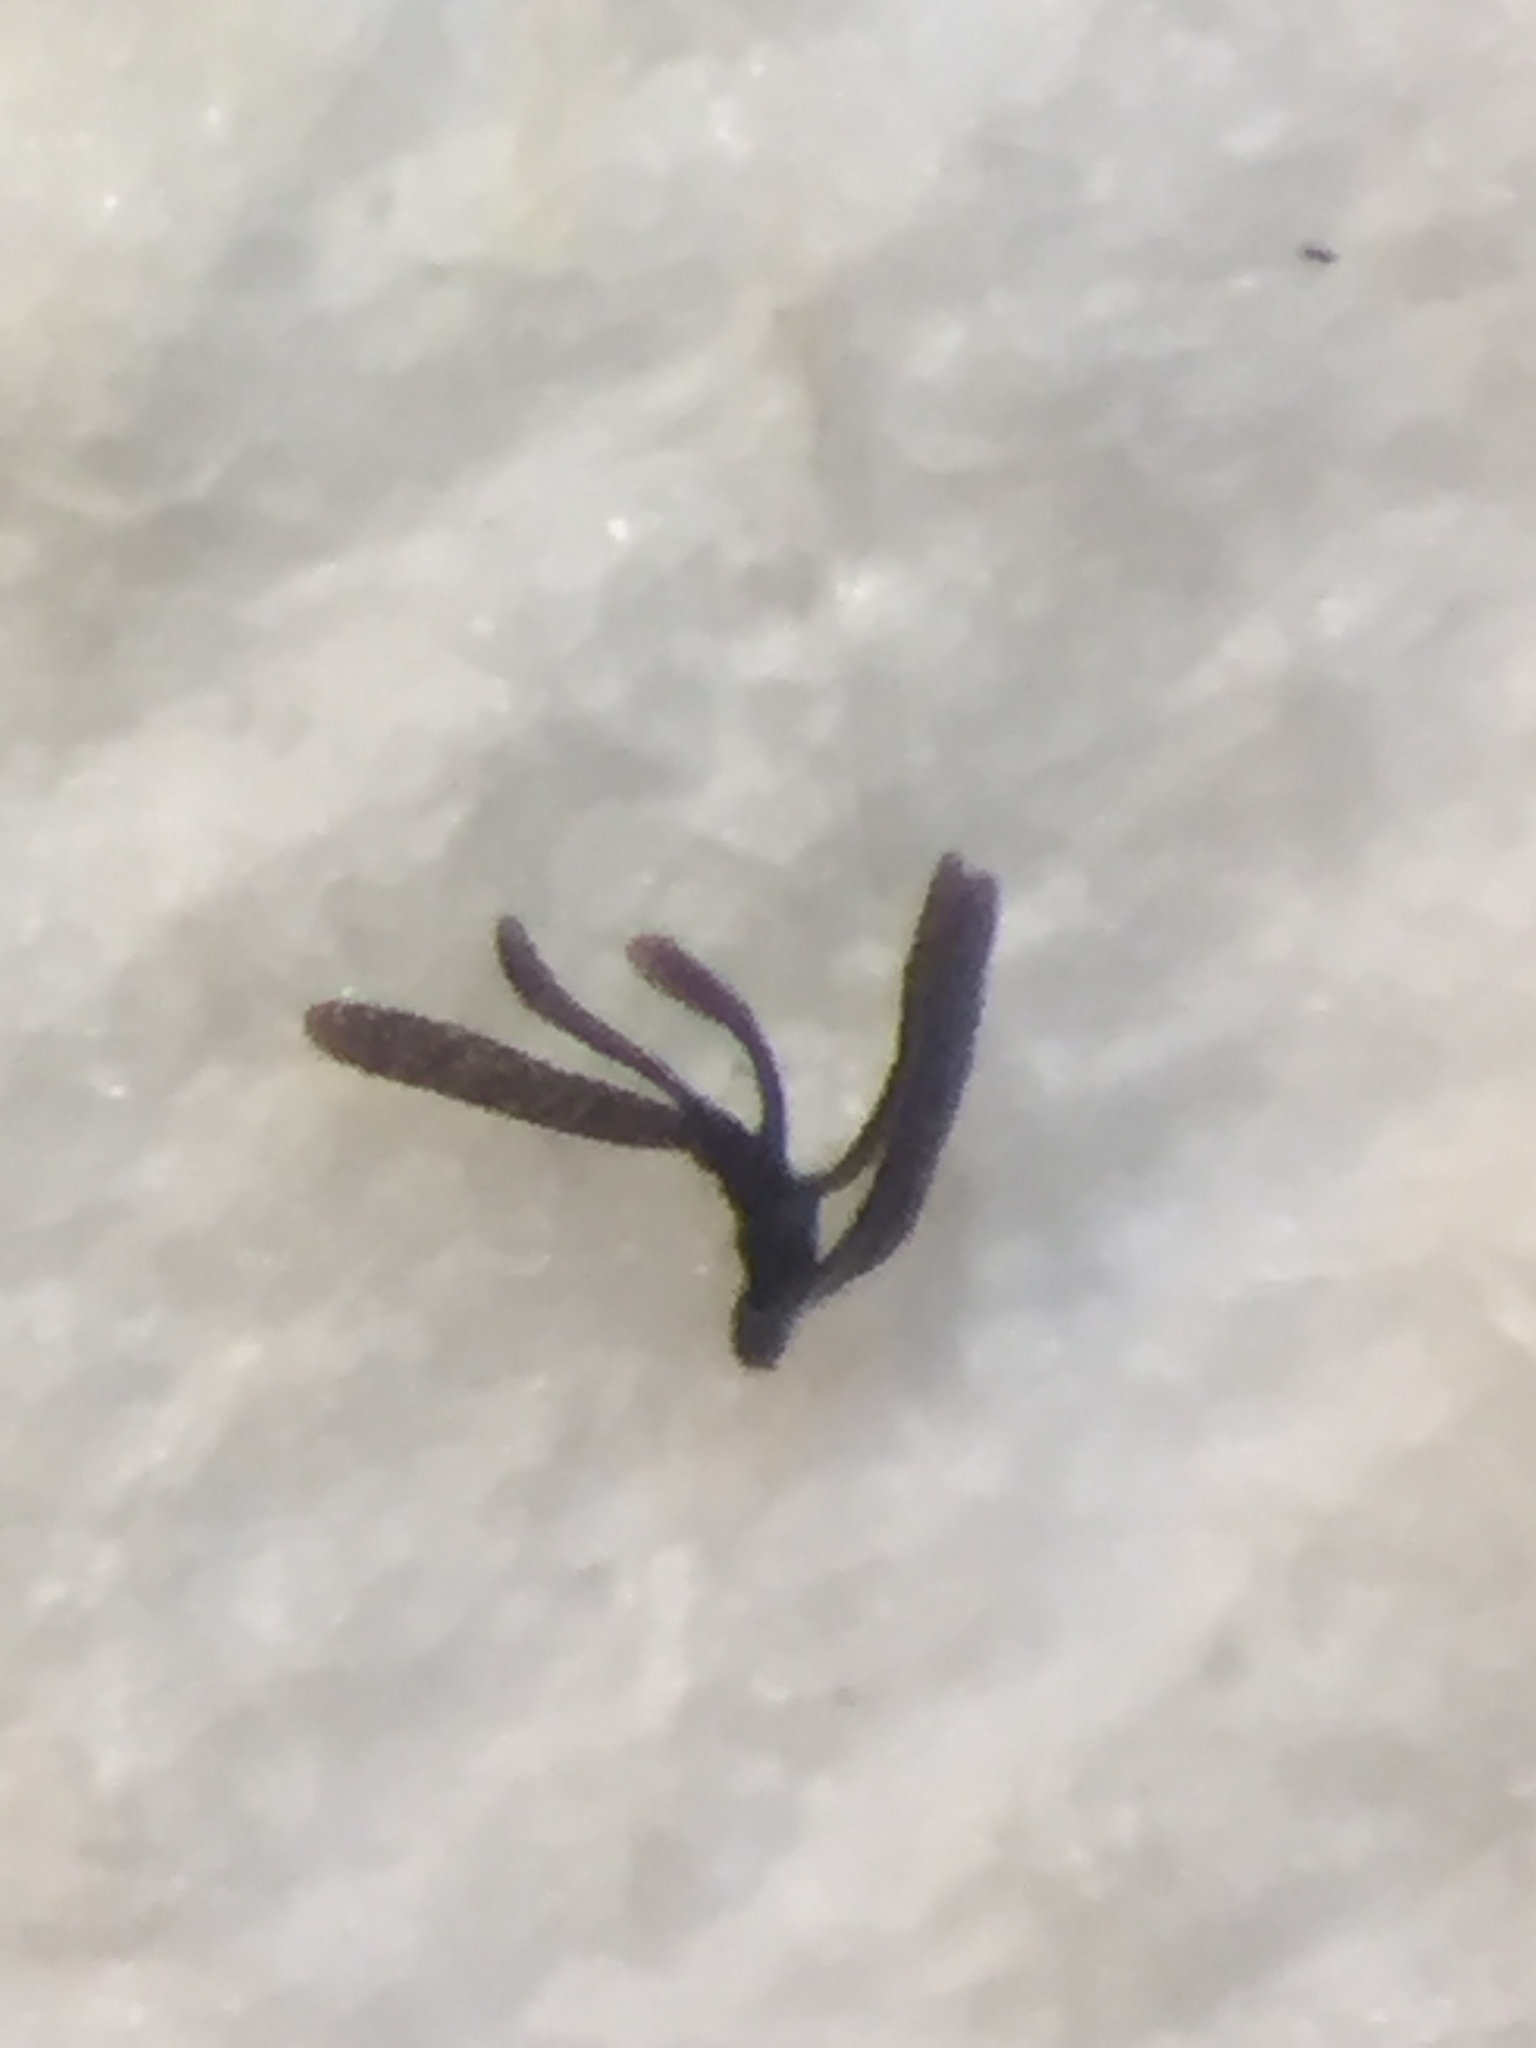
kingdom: Animalia
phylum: Arthropoda
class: Insecta
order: Strepsiptera
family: Halictophagidae
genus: Coriophagus
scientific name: Coriophagus casui
